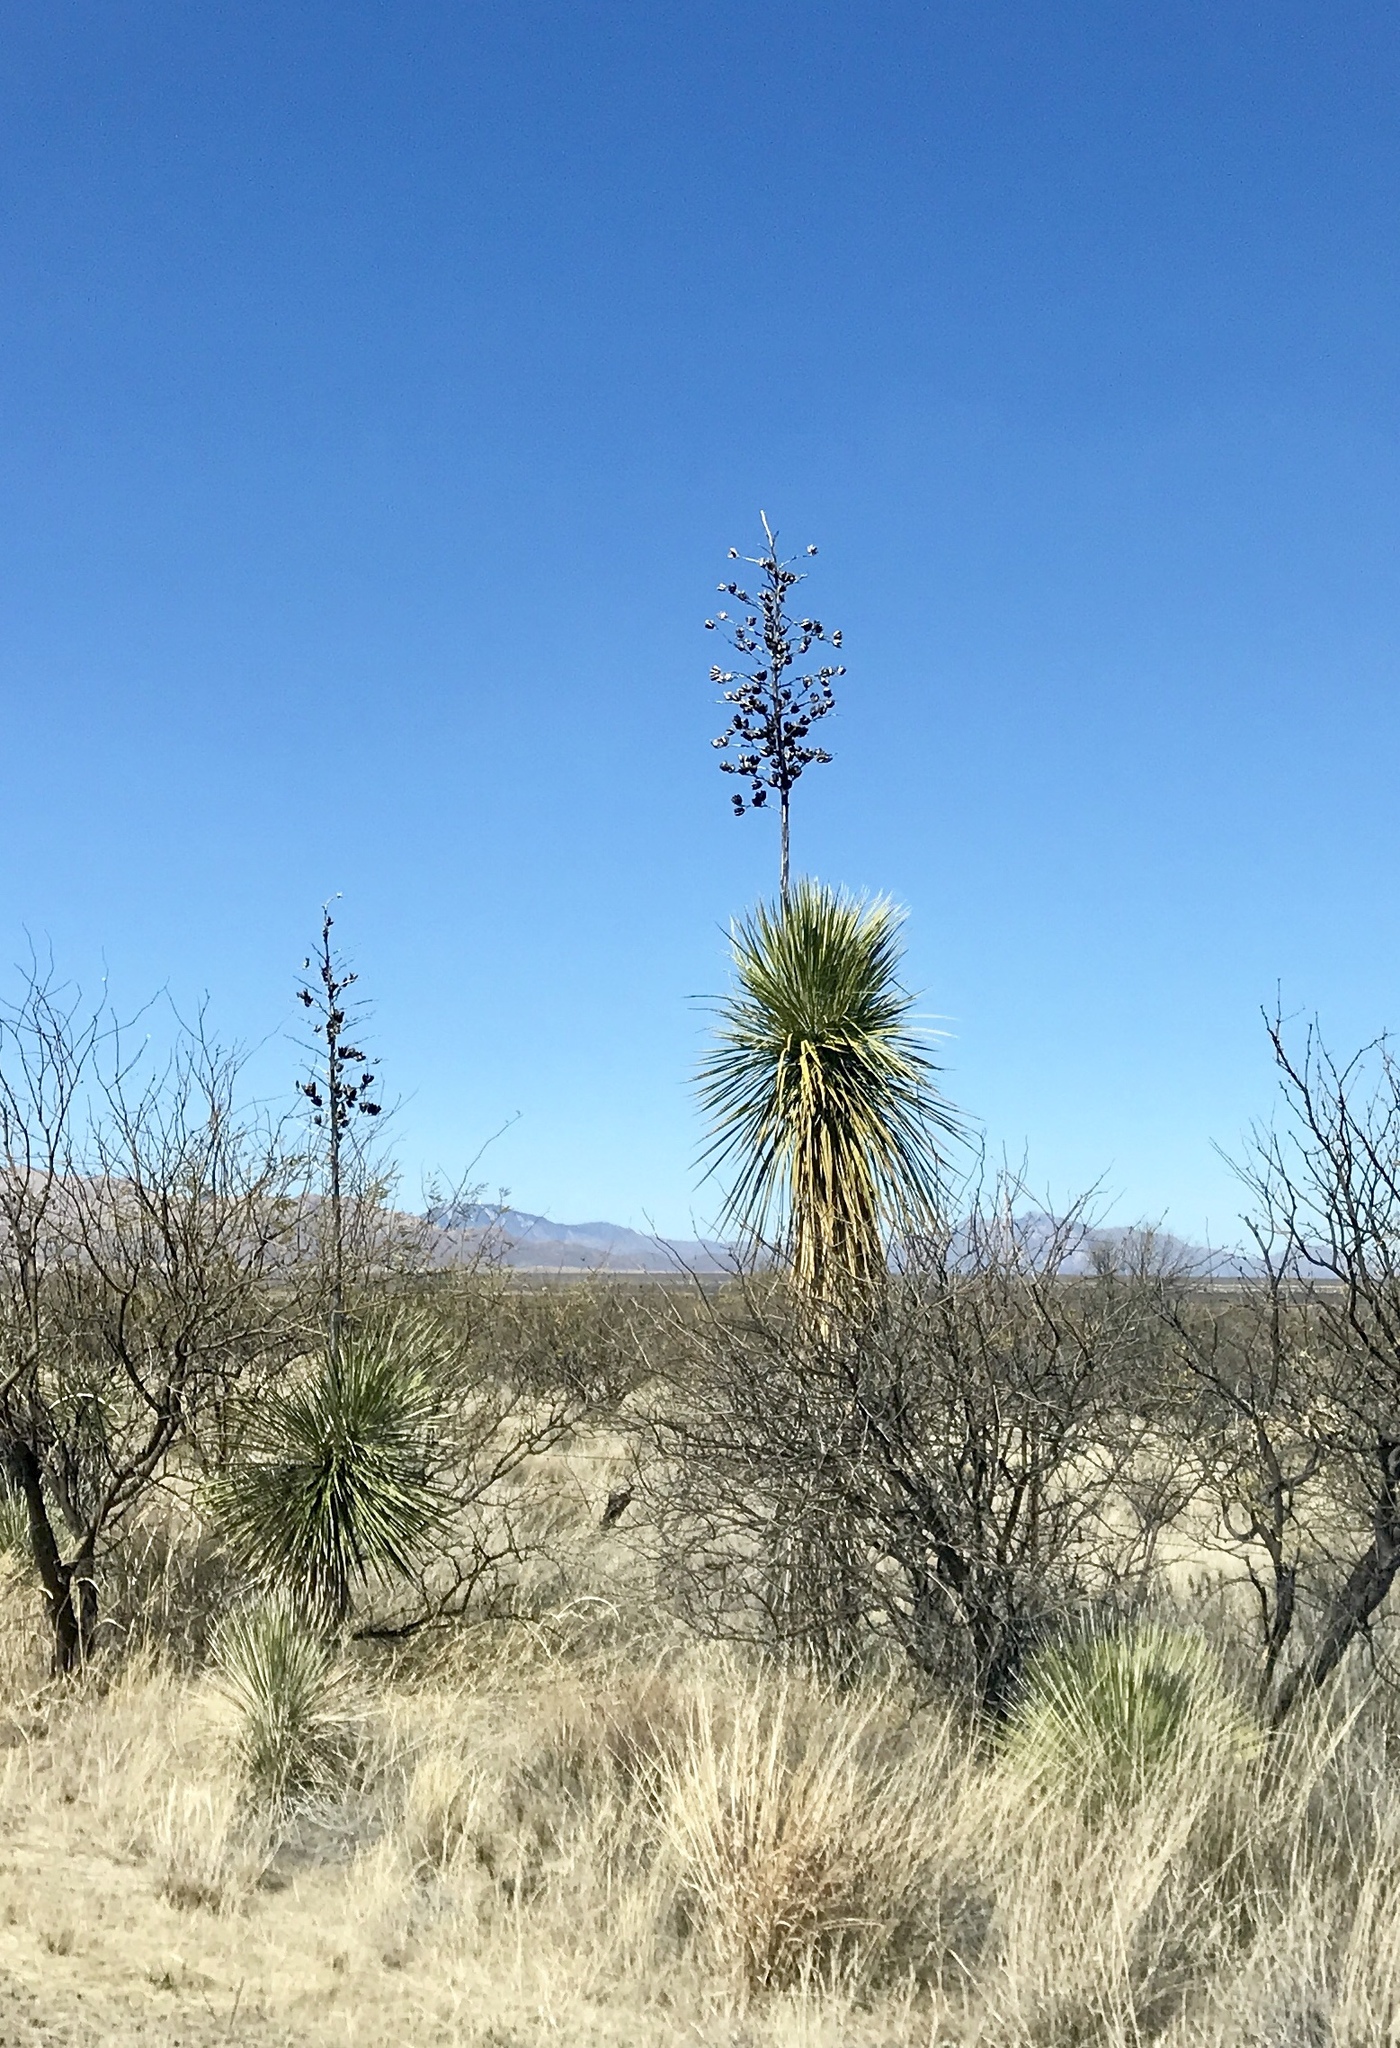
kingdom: Plantae
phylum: Tracheophyta
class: Liliopsida
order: Asparagales
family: Asparagaceae
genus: Yucca
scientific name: Yucca elata
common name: Palmella
